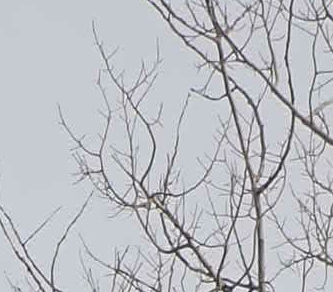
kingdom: Plantae
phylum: Tracheophyta
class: Magnoliopsida
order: Malpighiales
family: Salicaceae
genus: Populus
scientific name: Populus tremuloides
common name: Quaking aspen
